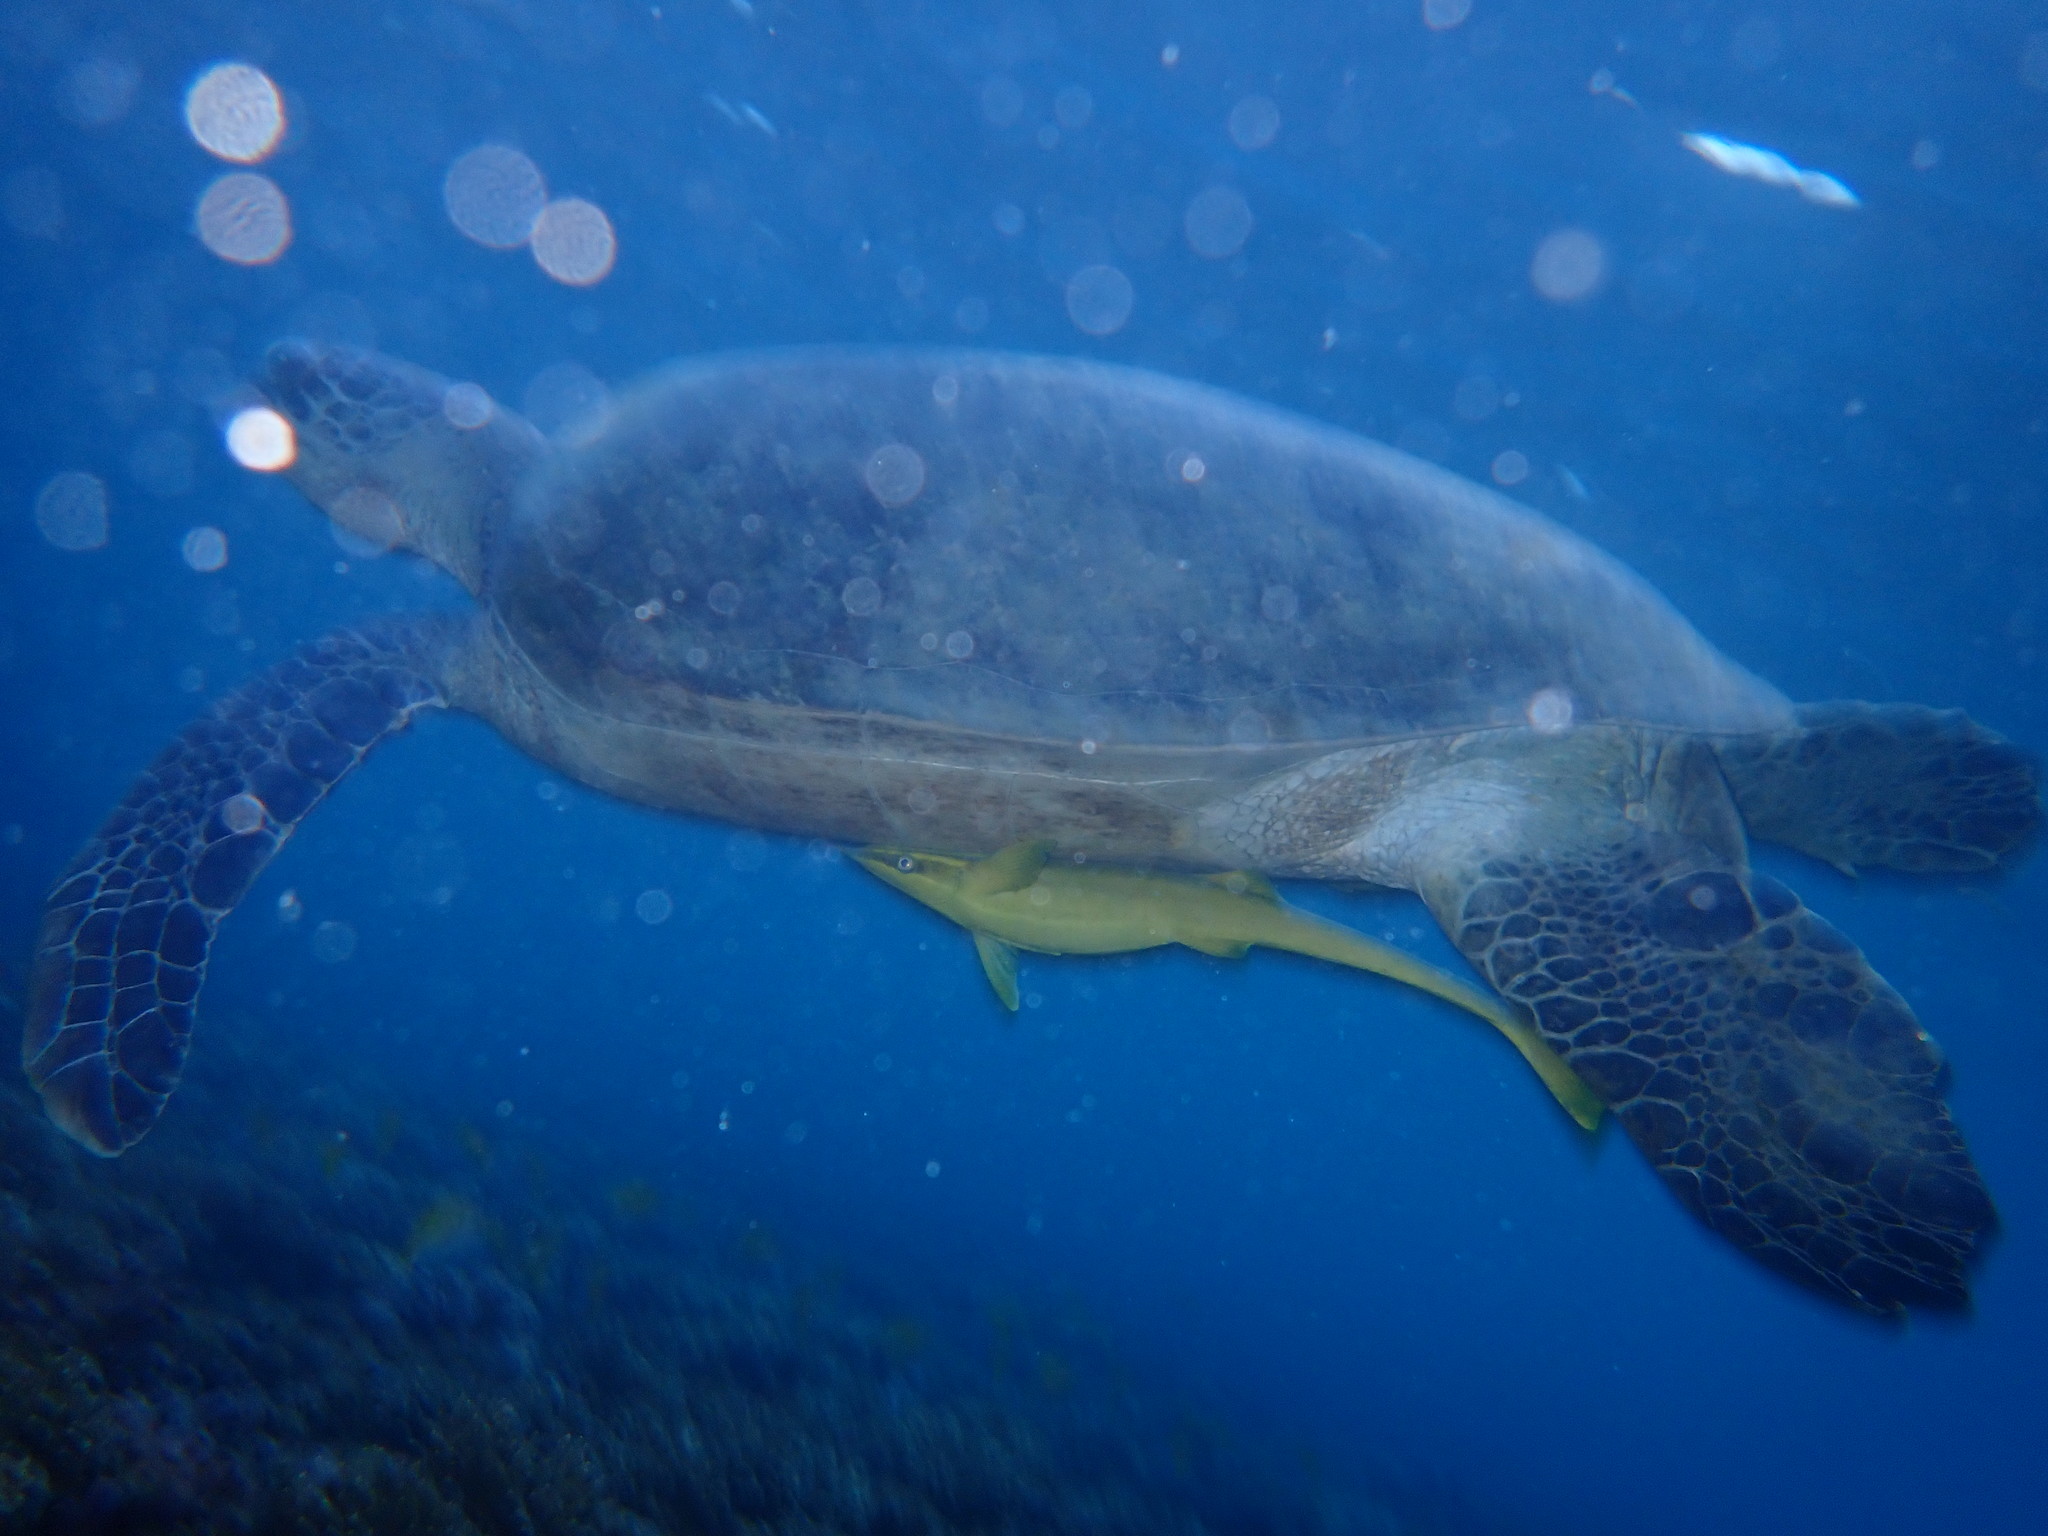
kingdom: Animalia
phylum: Chordata
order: Perciformes
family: Echeneidae
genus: Echeneis
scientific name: Echeneis naucrates
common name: Sharksucker
